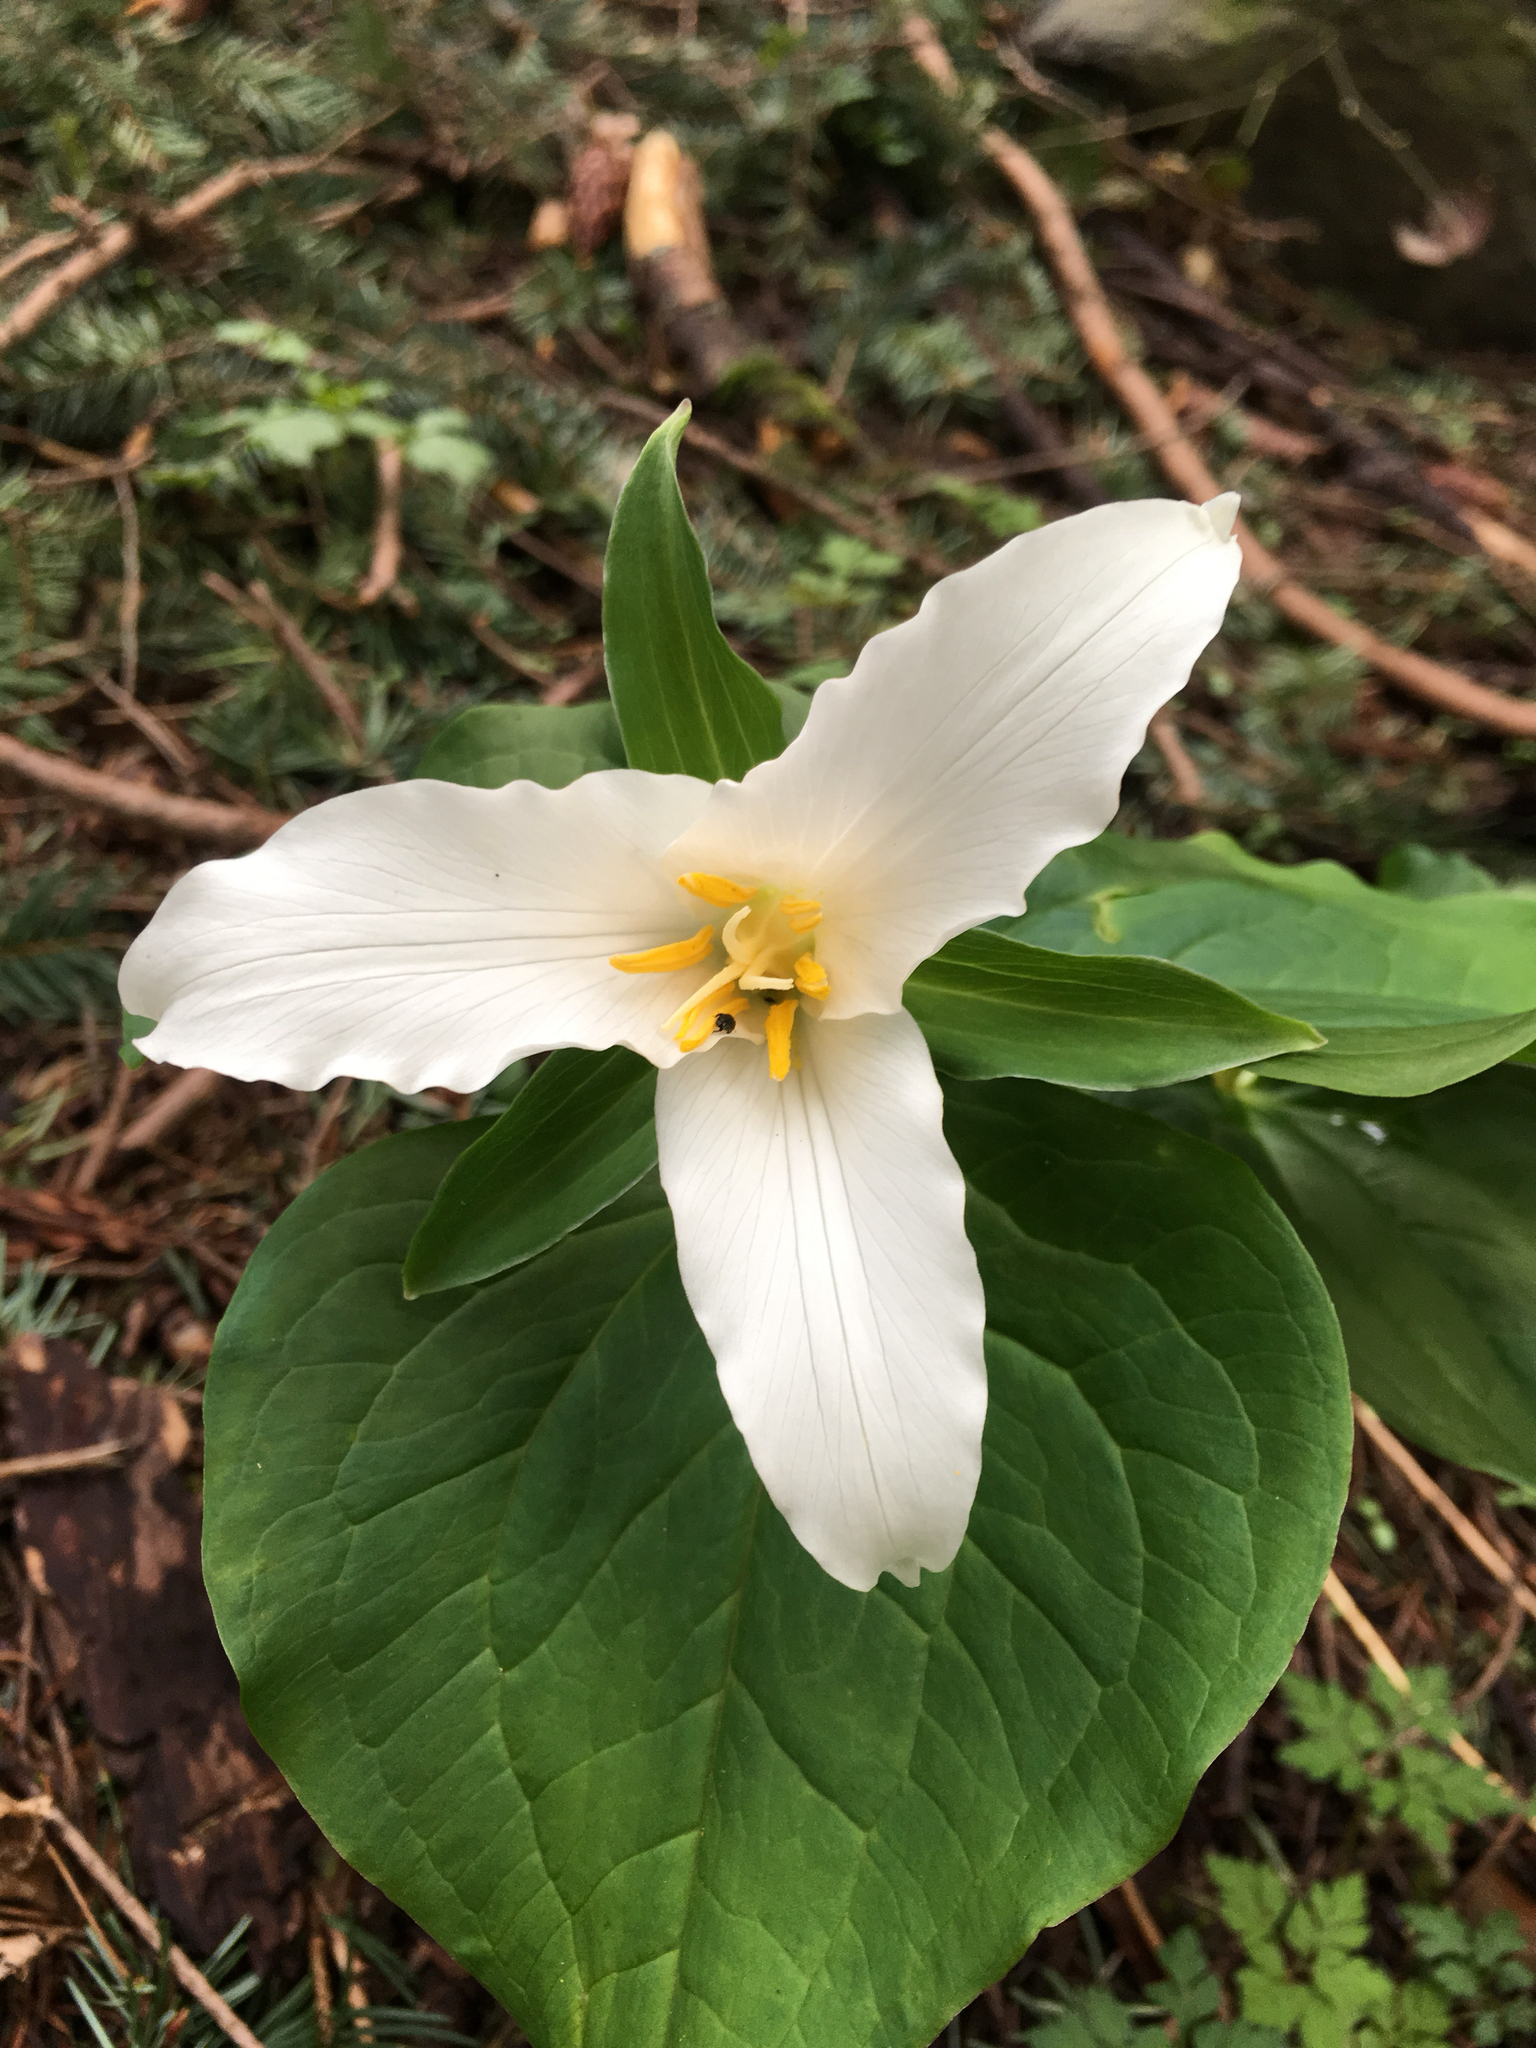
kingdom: Plantae
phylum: Tracheophyta
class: Liliopsida
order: Liliales
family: Melanthiaceae
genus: Trillium
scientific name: Trillium ovatum
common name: Pacific trillium
